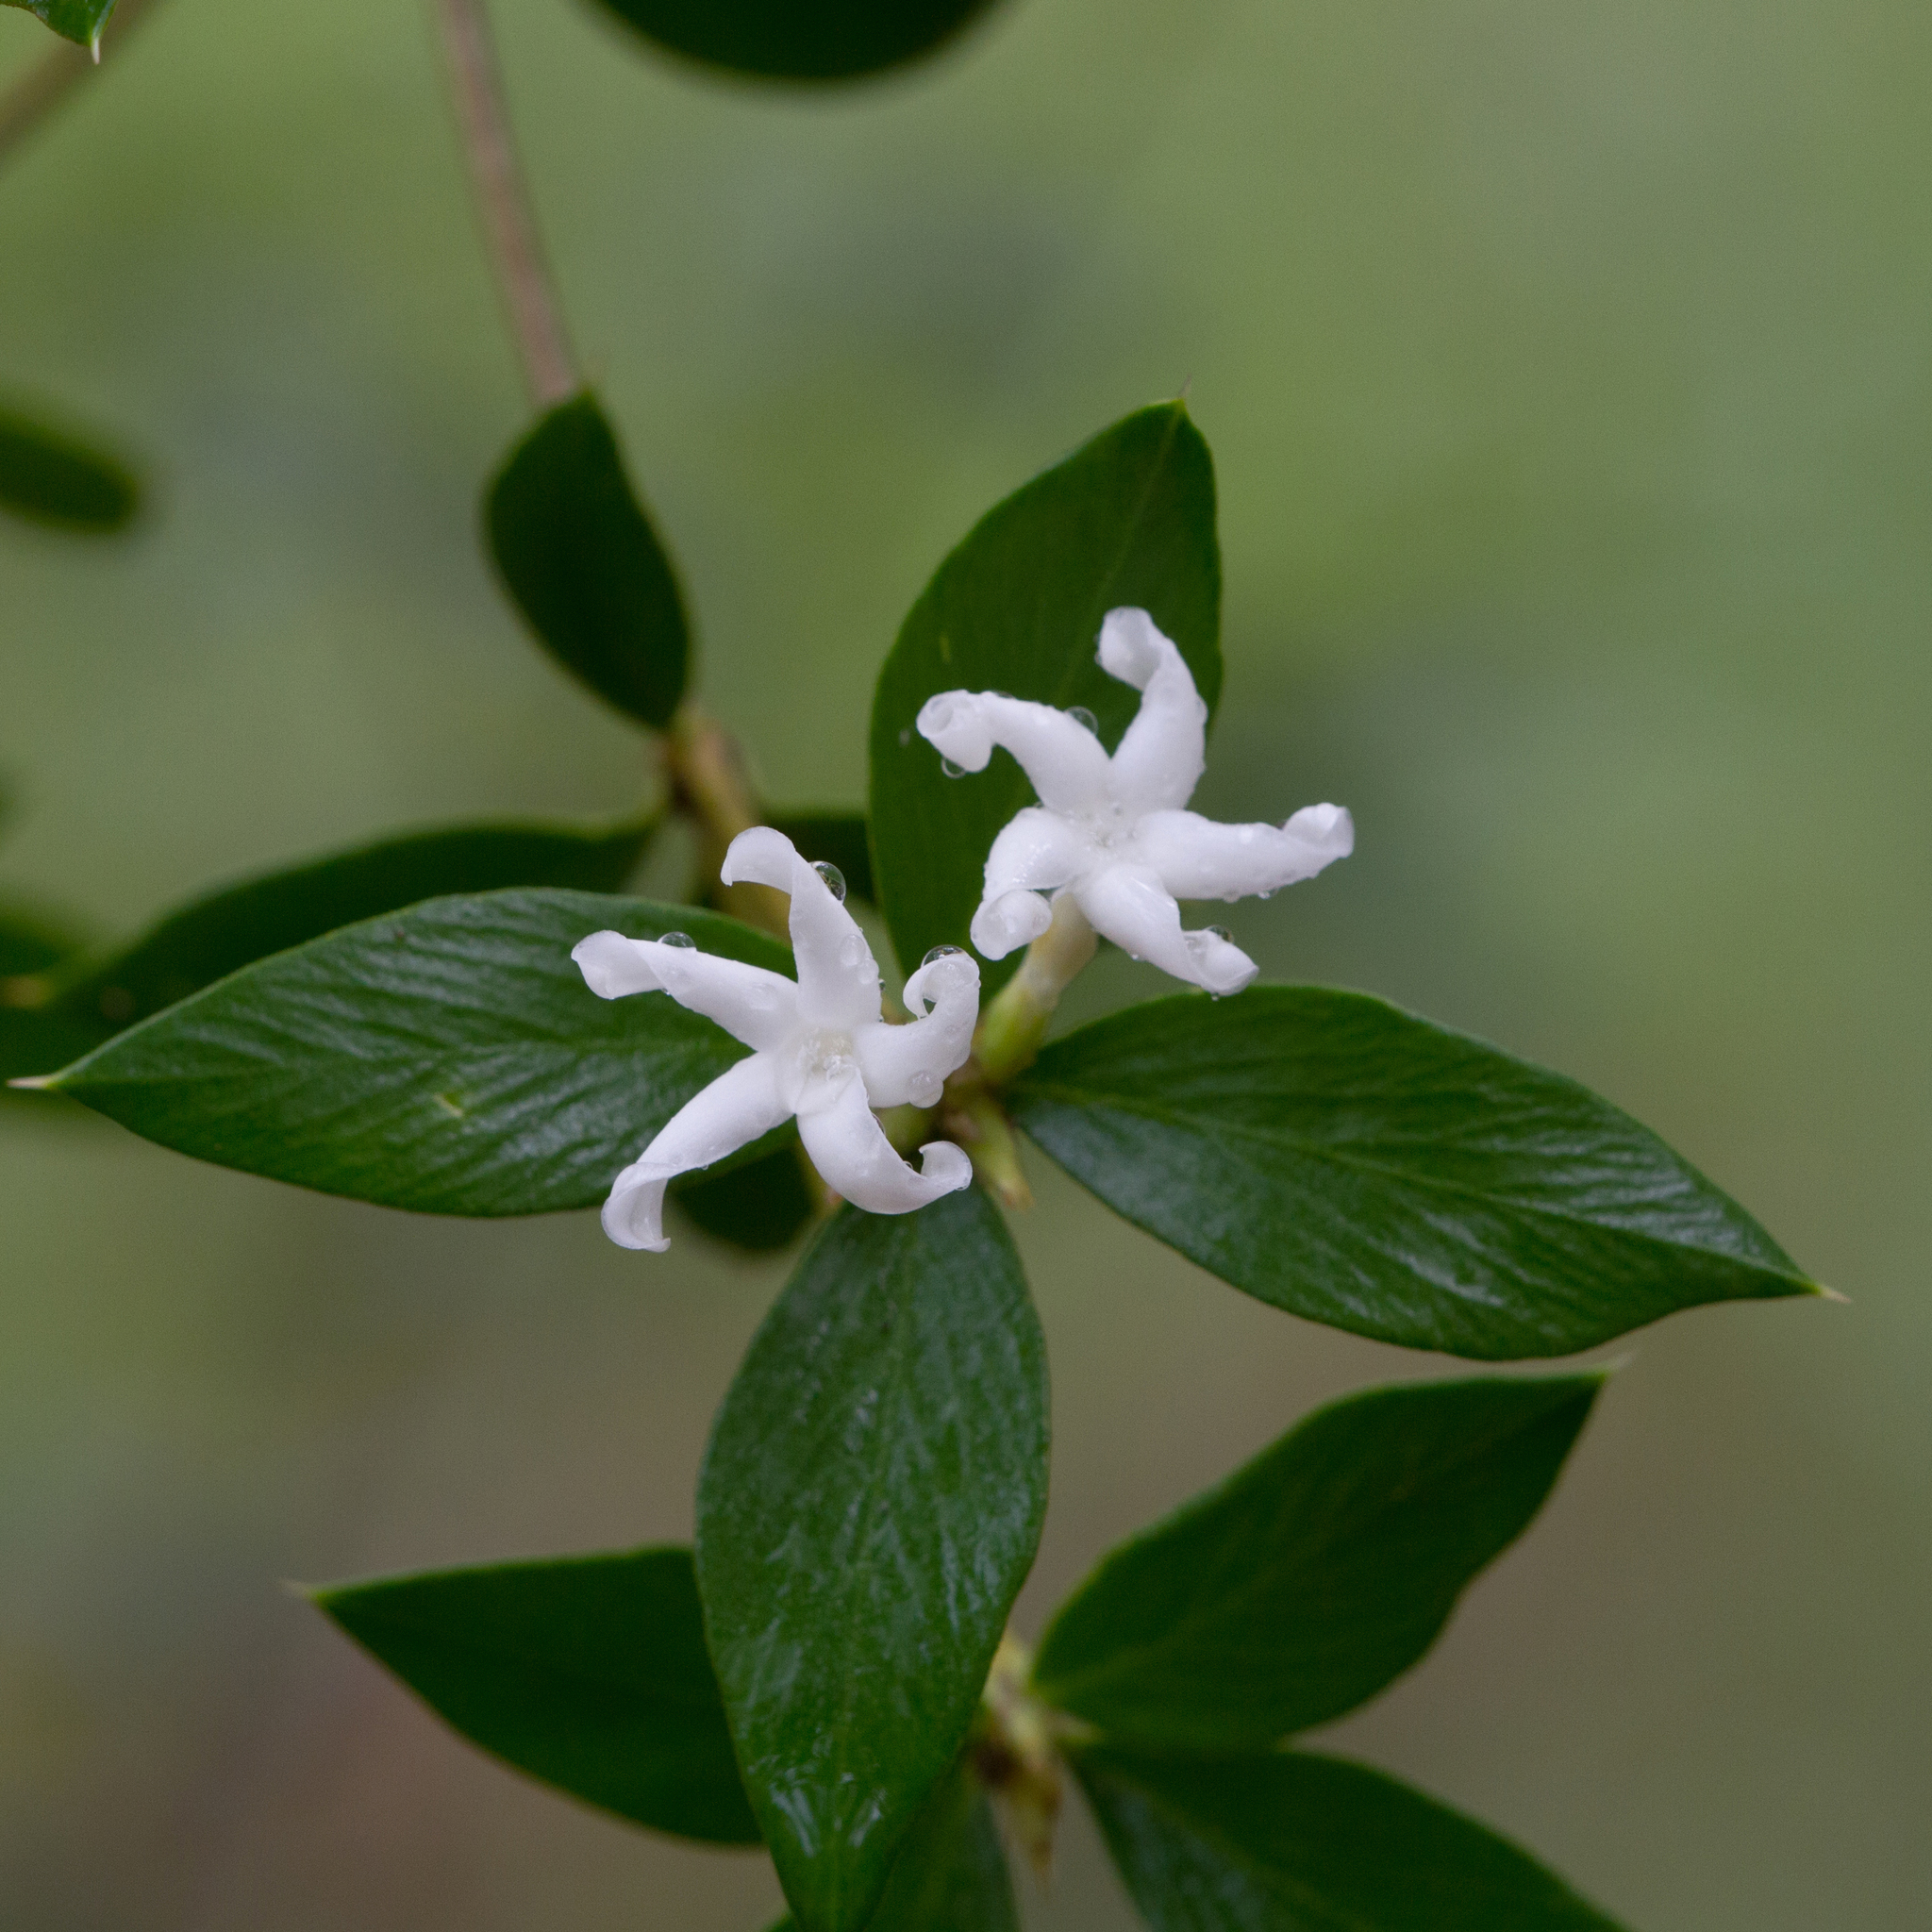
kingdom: Plantae
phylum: Tracheophyta
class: Magnoliopsida
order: Gentianales
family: Apocynaceae
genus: Alyxia
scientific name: Alyxia tropica
